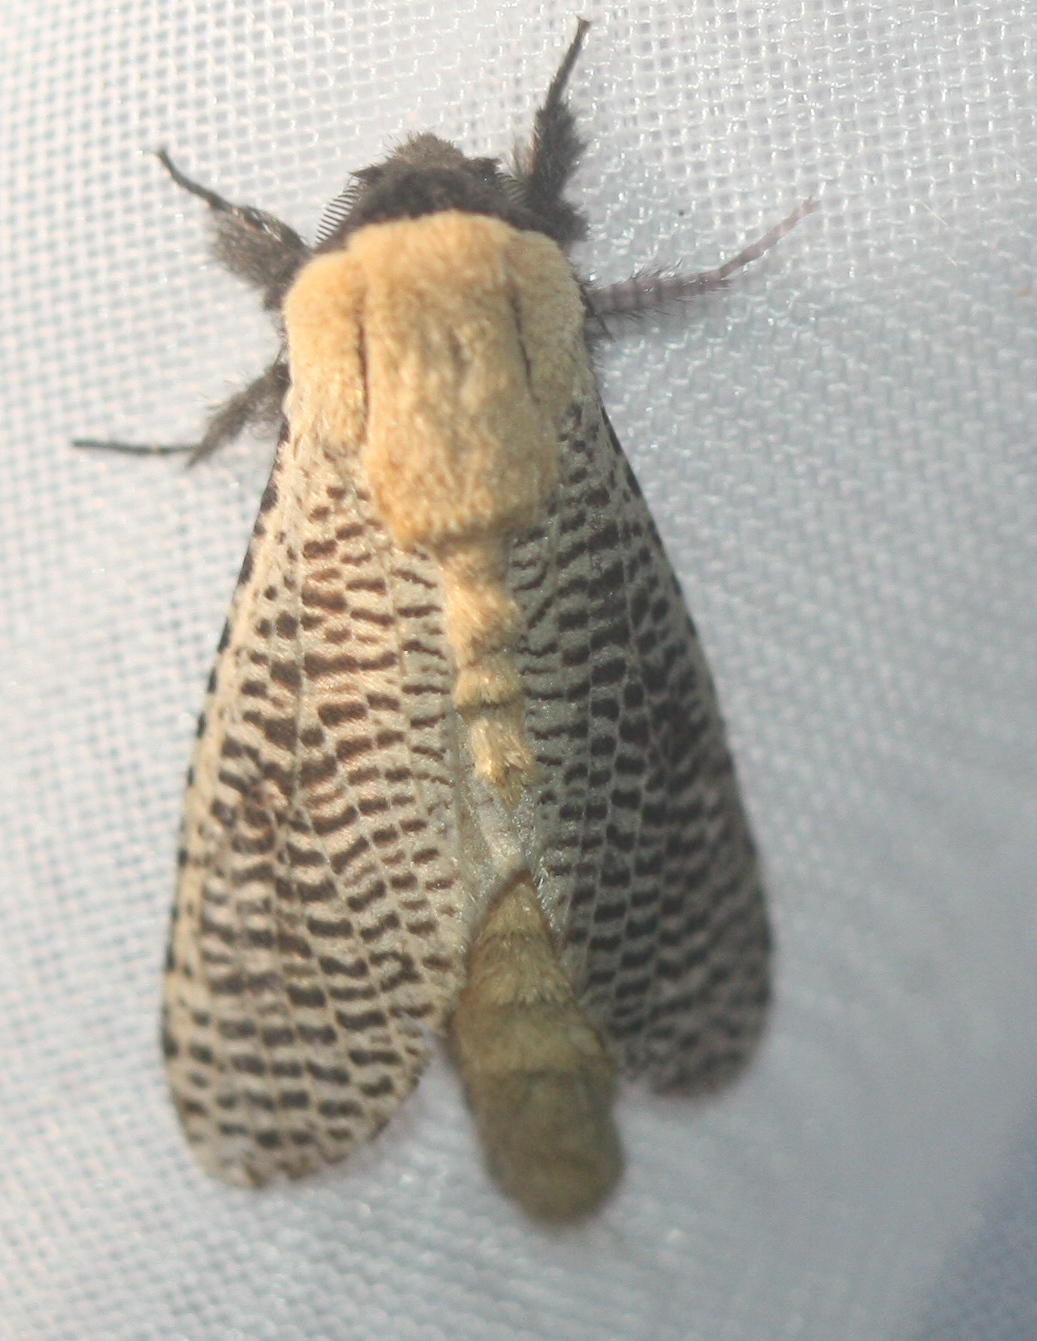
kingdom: Animalia
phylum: Arthropoda
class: Insecta
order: Lepidoptera
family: Cossidae
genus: Morpheis
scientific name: Morpheis
